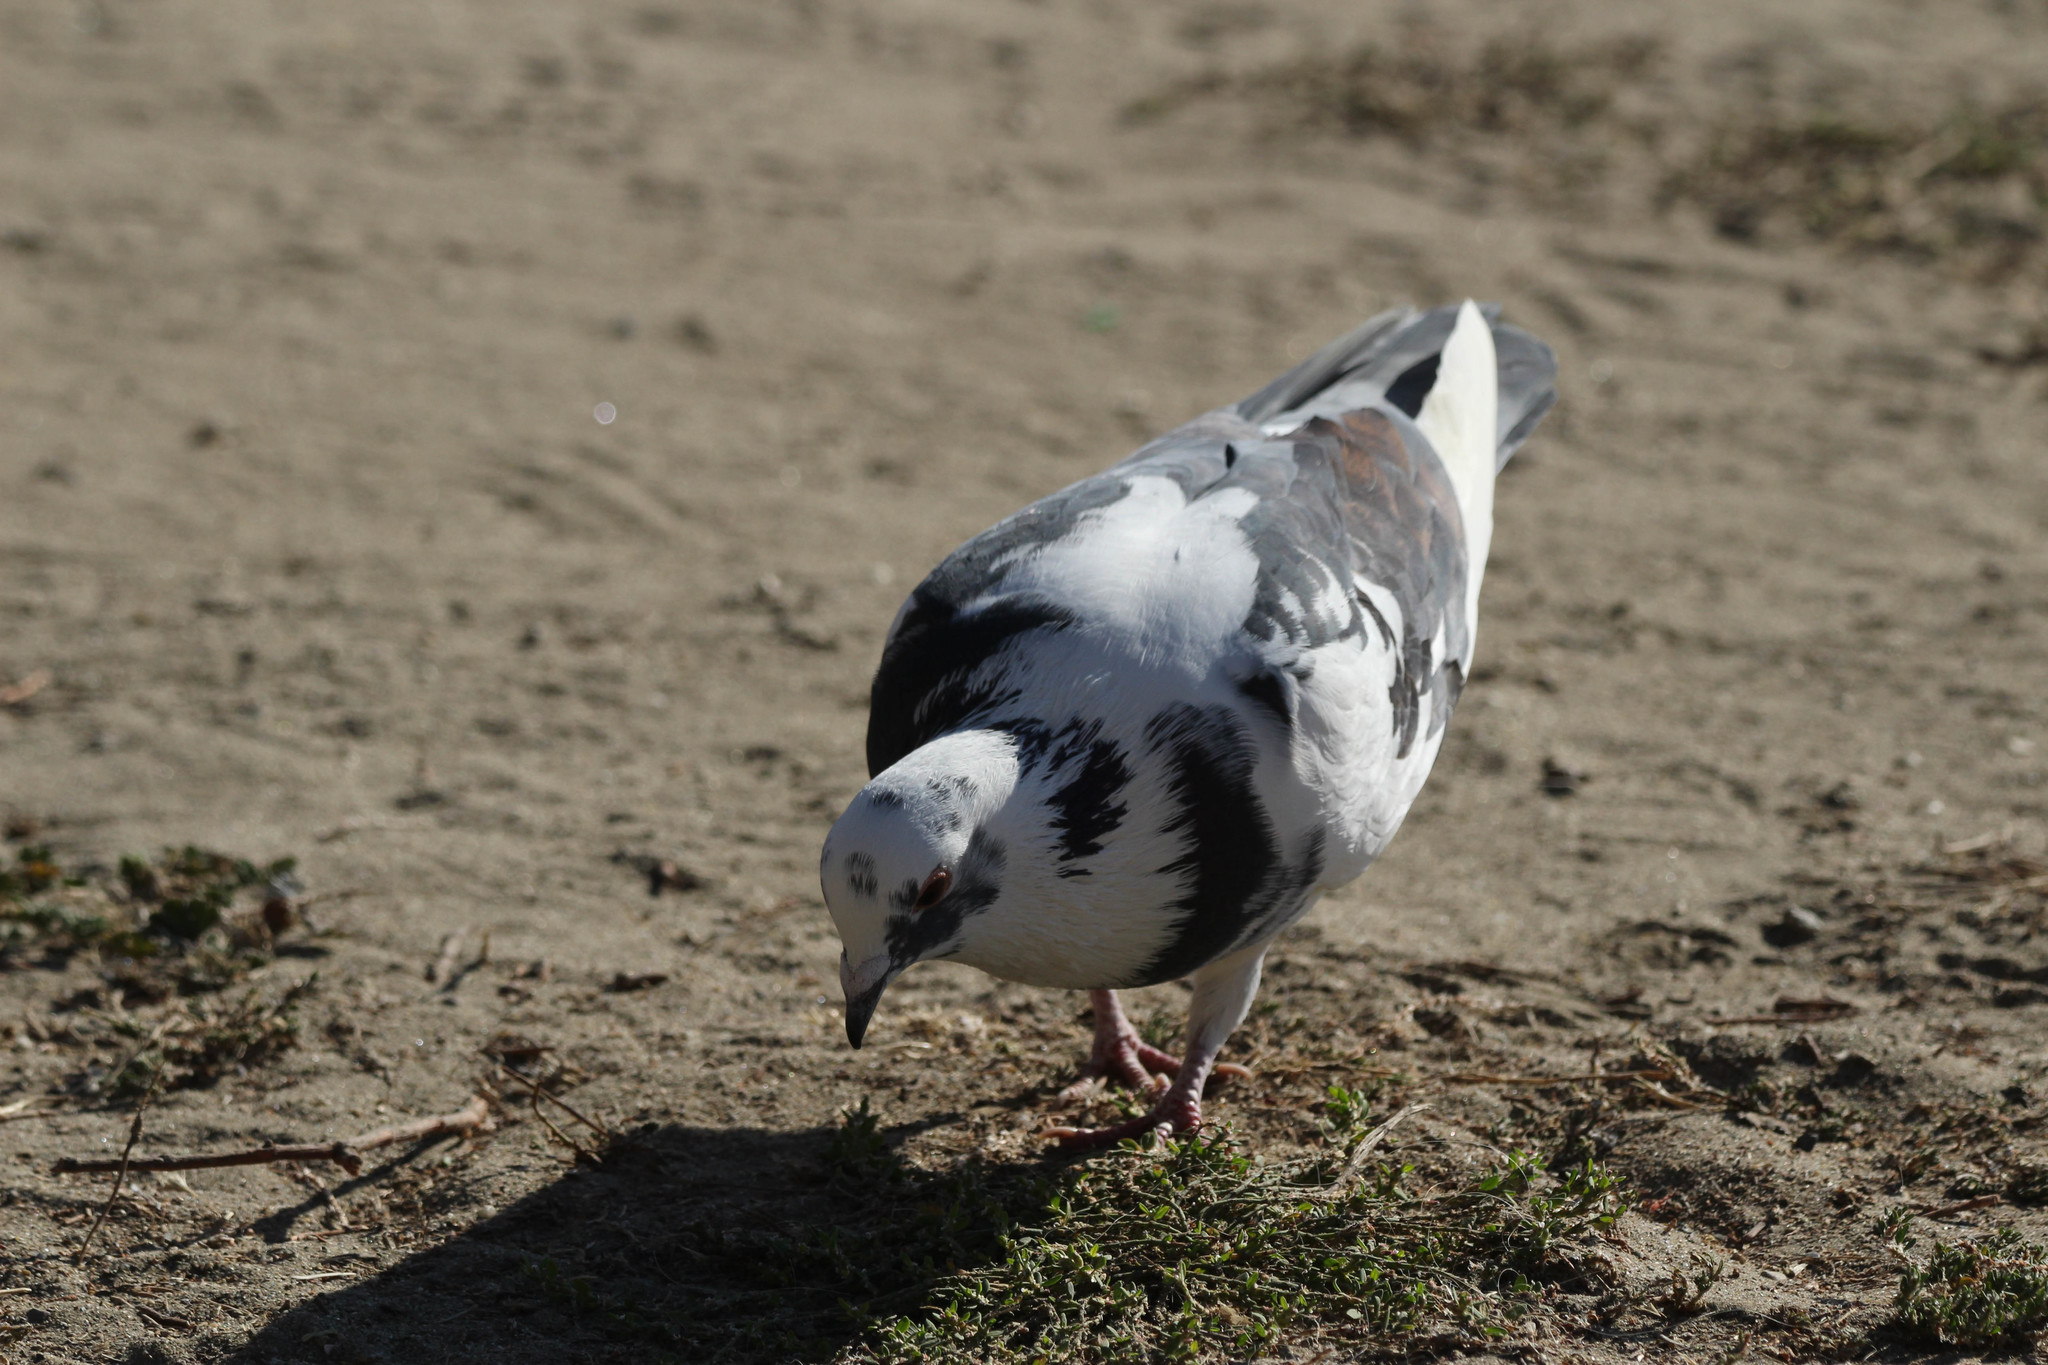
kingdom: Animalia
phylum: Chordata
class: Aves
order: Columbiformes
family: Columbidae
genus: Columba
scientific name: Columba livia
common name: Rock pigeon
